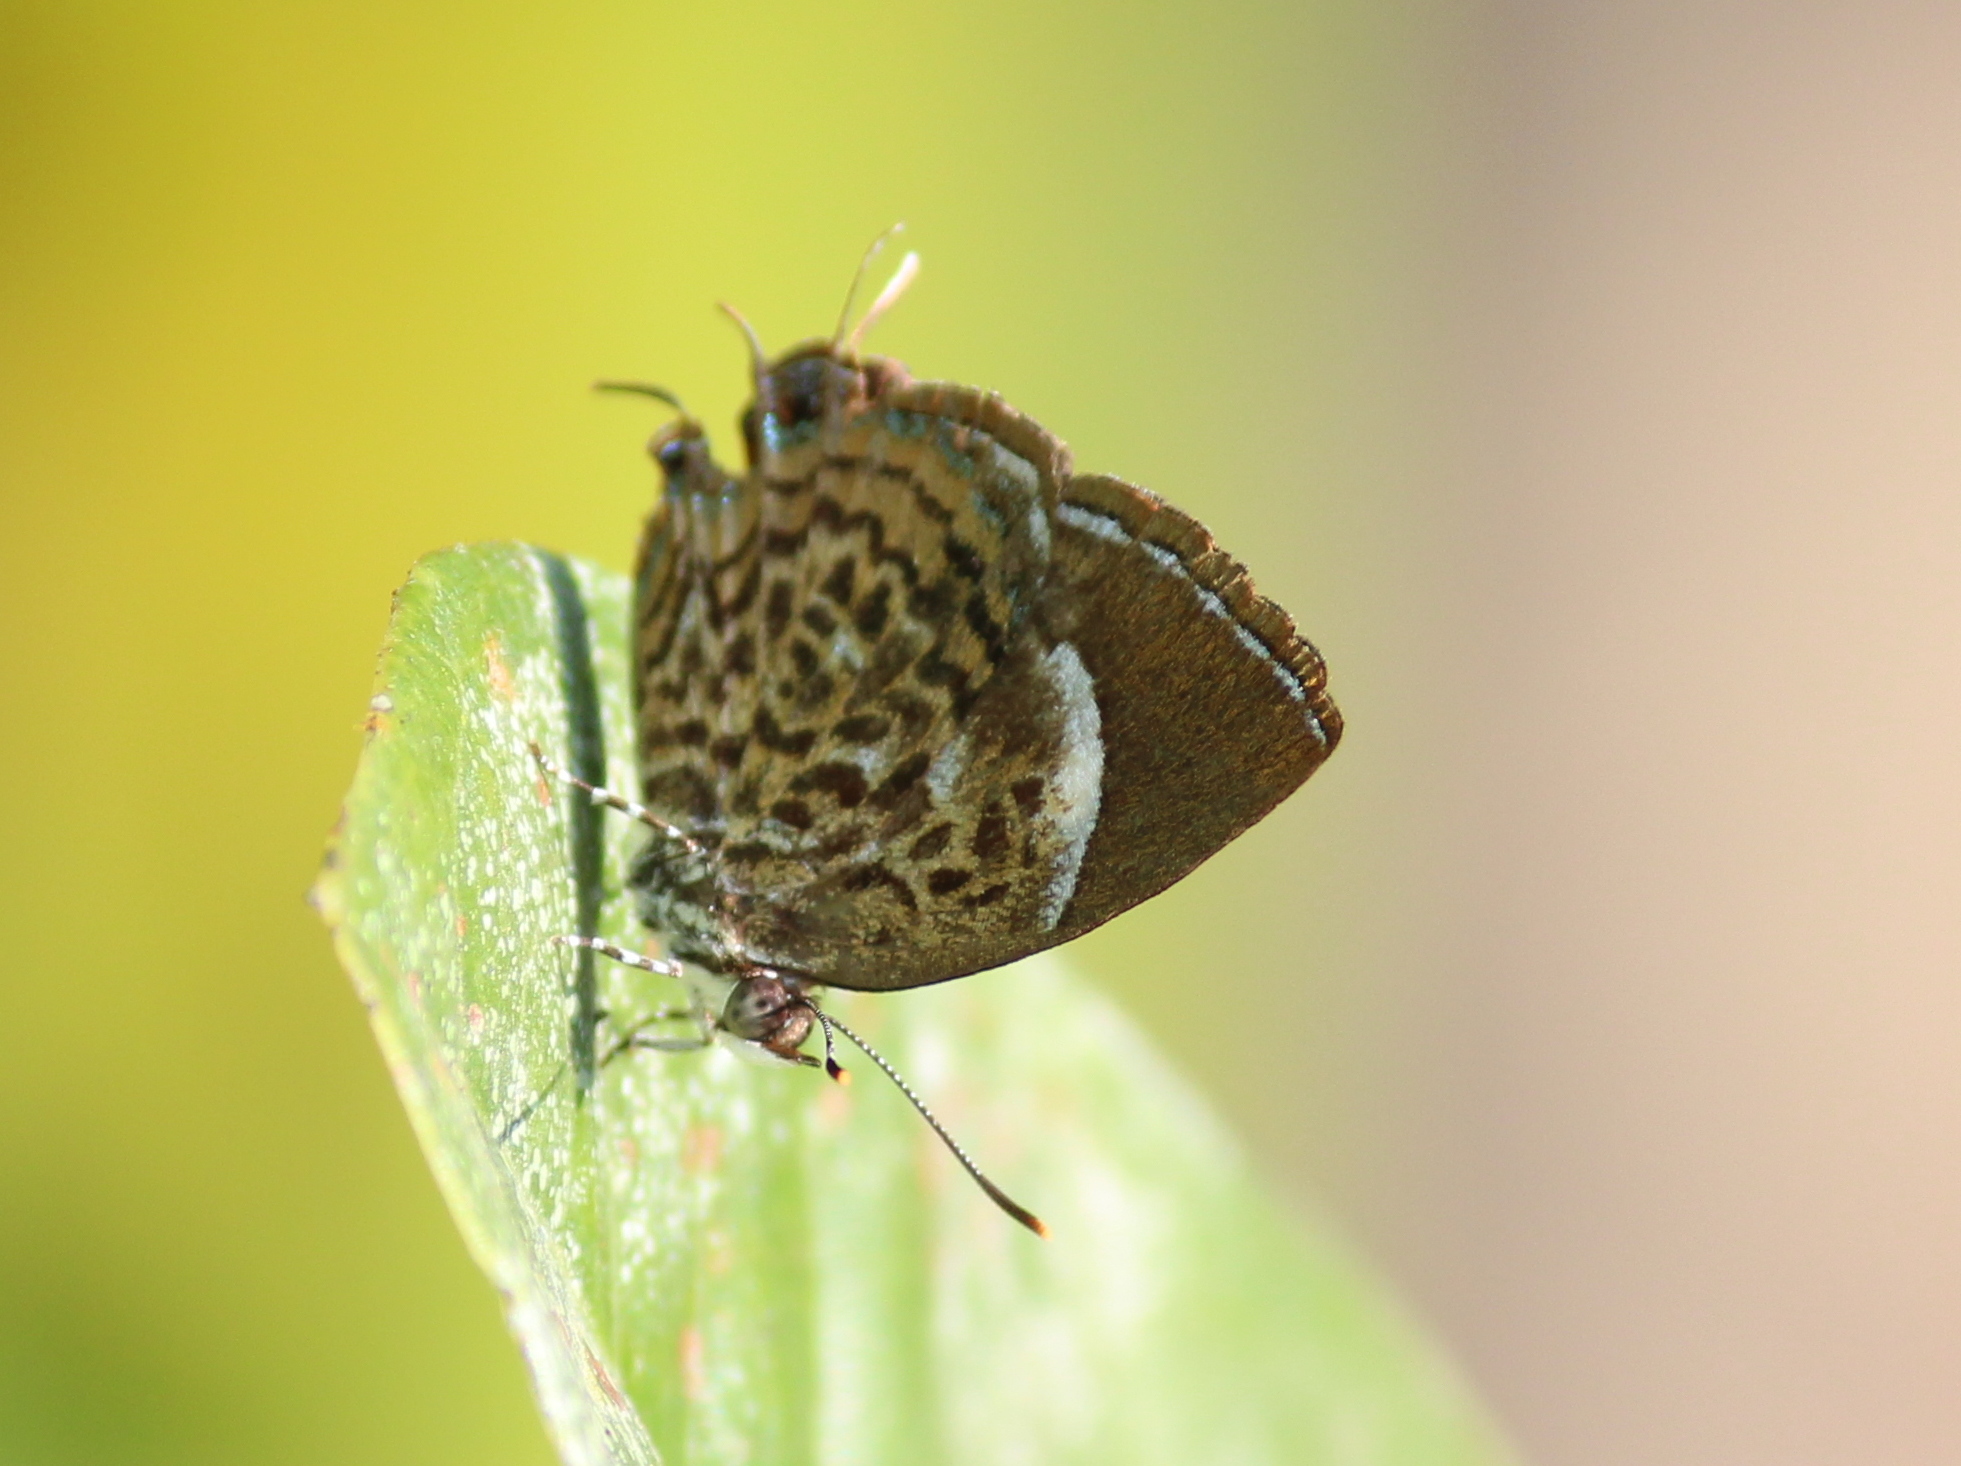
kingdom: Animalia
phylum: Arthropoda
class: Insecta
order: Lepidoptera
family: Lycaenidae
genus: Rathinda
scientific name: Rathinda amor
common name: Monkey puzzle
